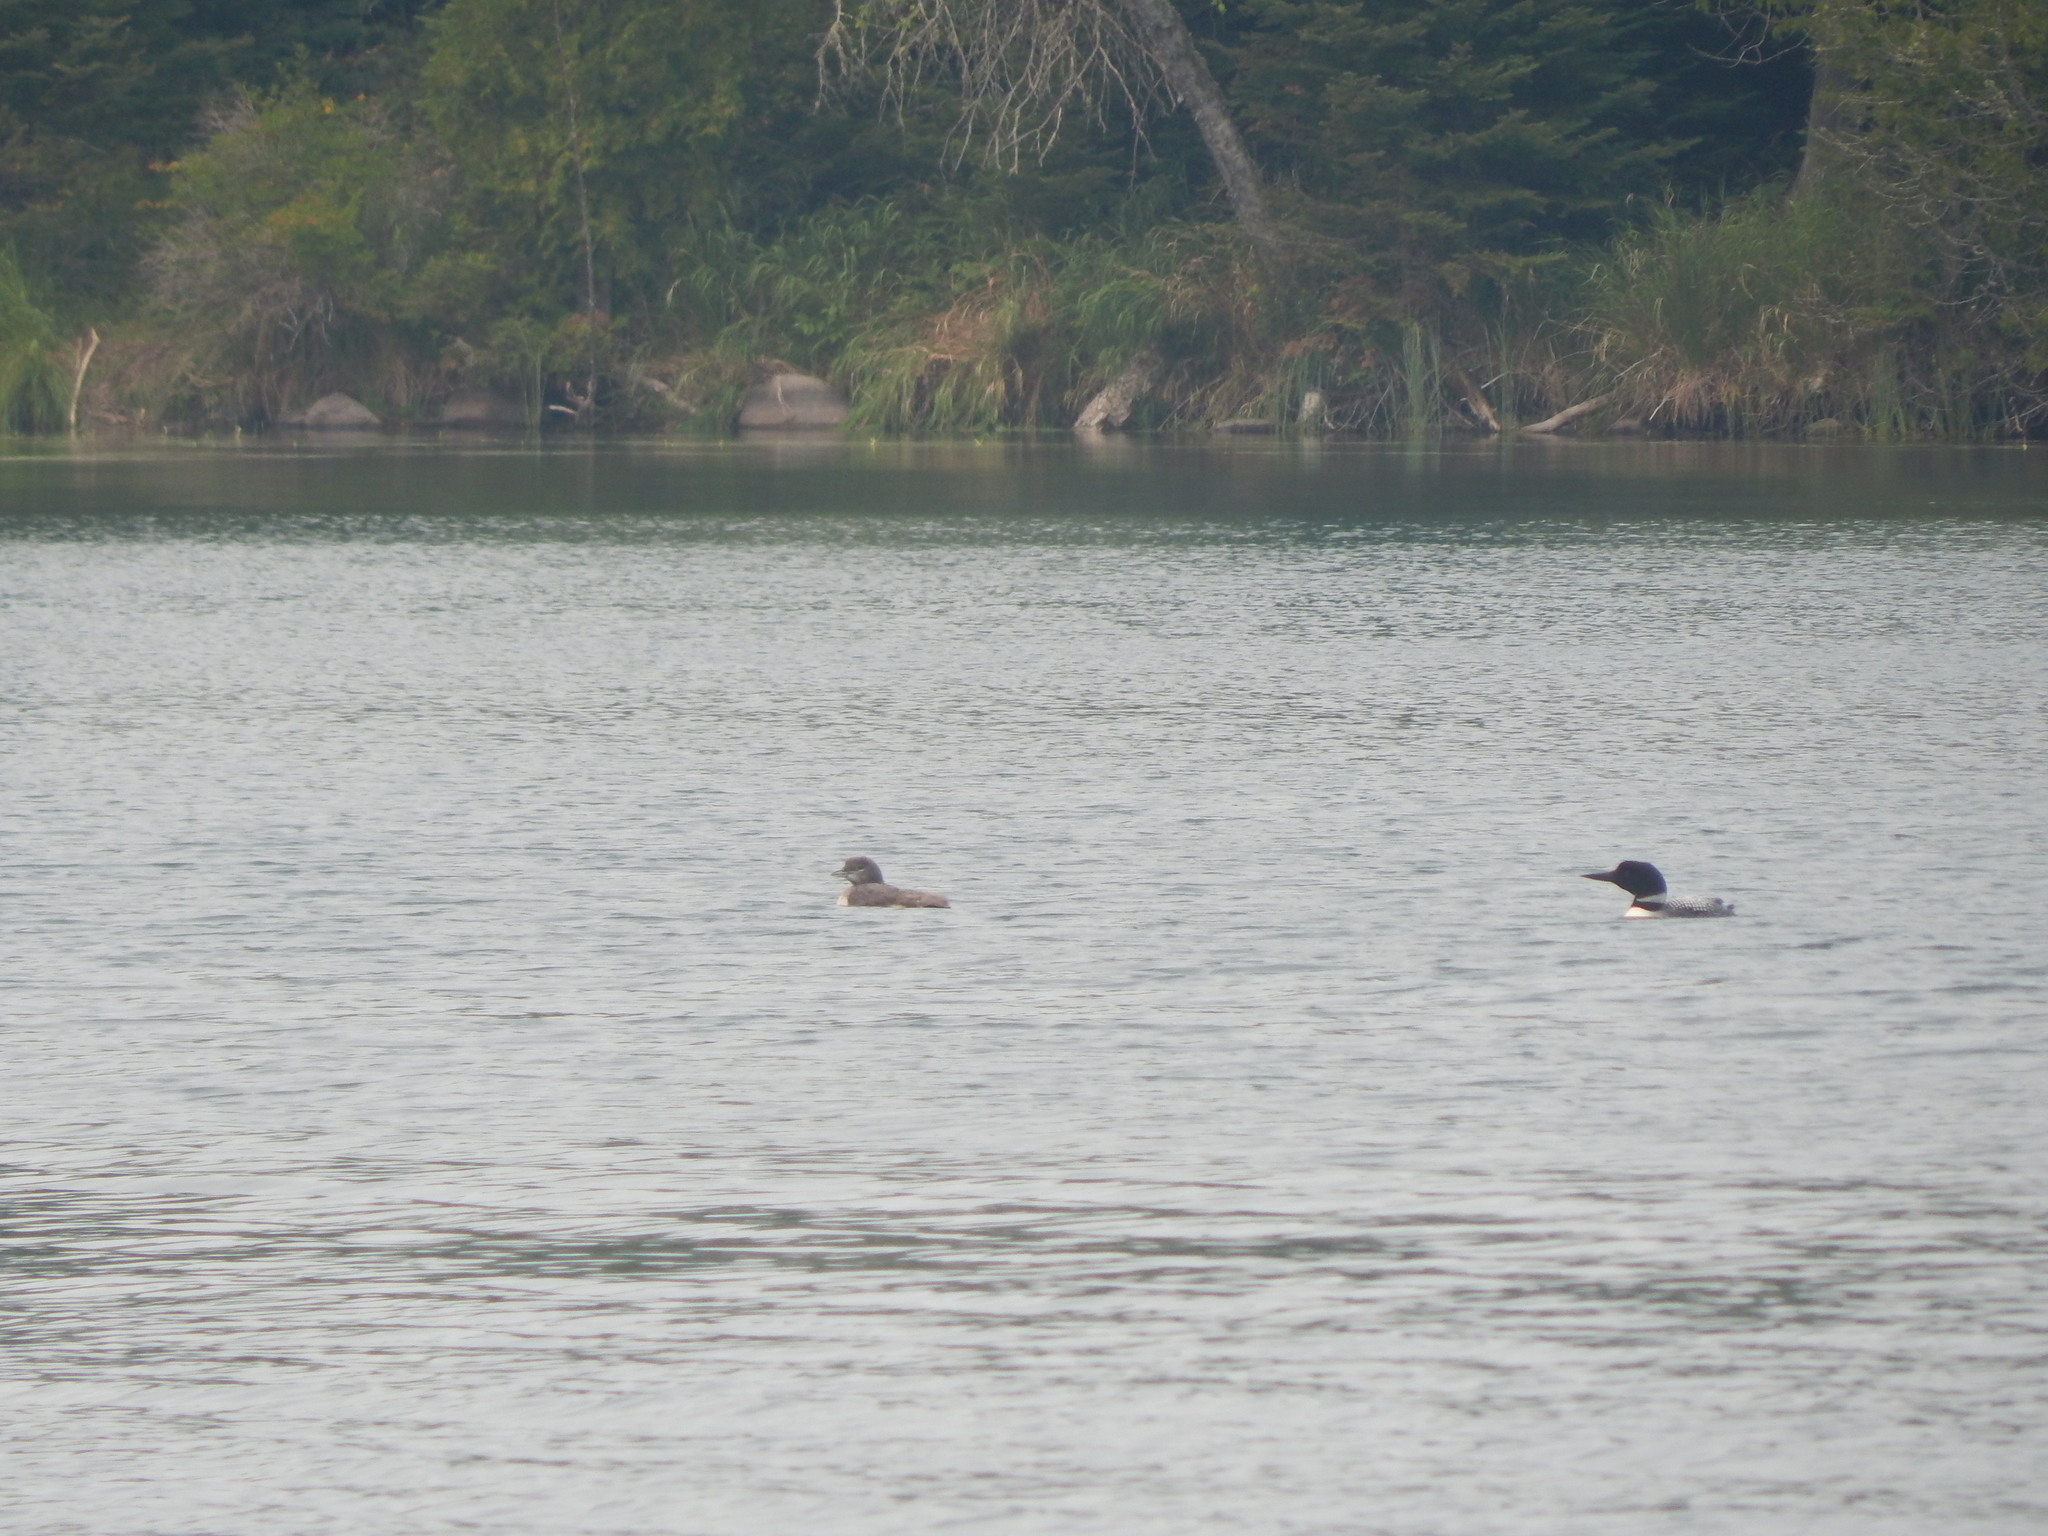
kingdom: Animalia
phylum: Chordata
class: Aves
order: Gaviiformes
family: Gaviidae
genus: Gavia
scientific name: Gavia immer
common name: Common loon
